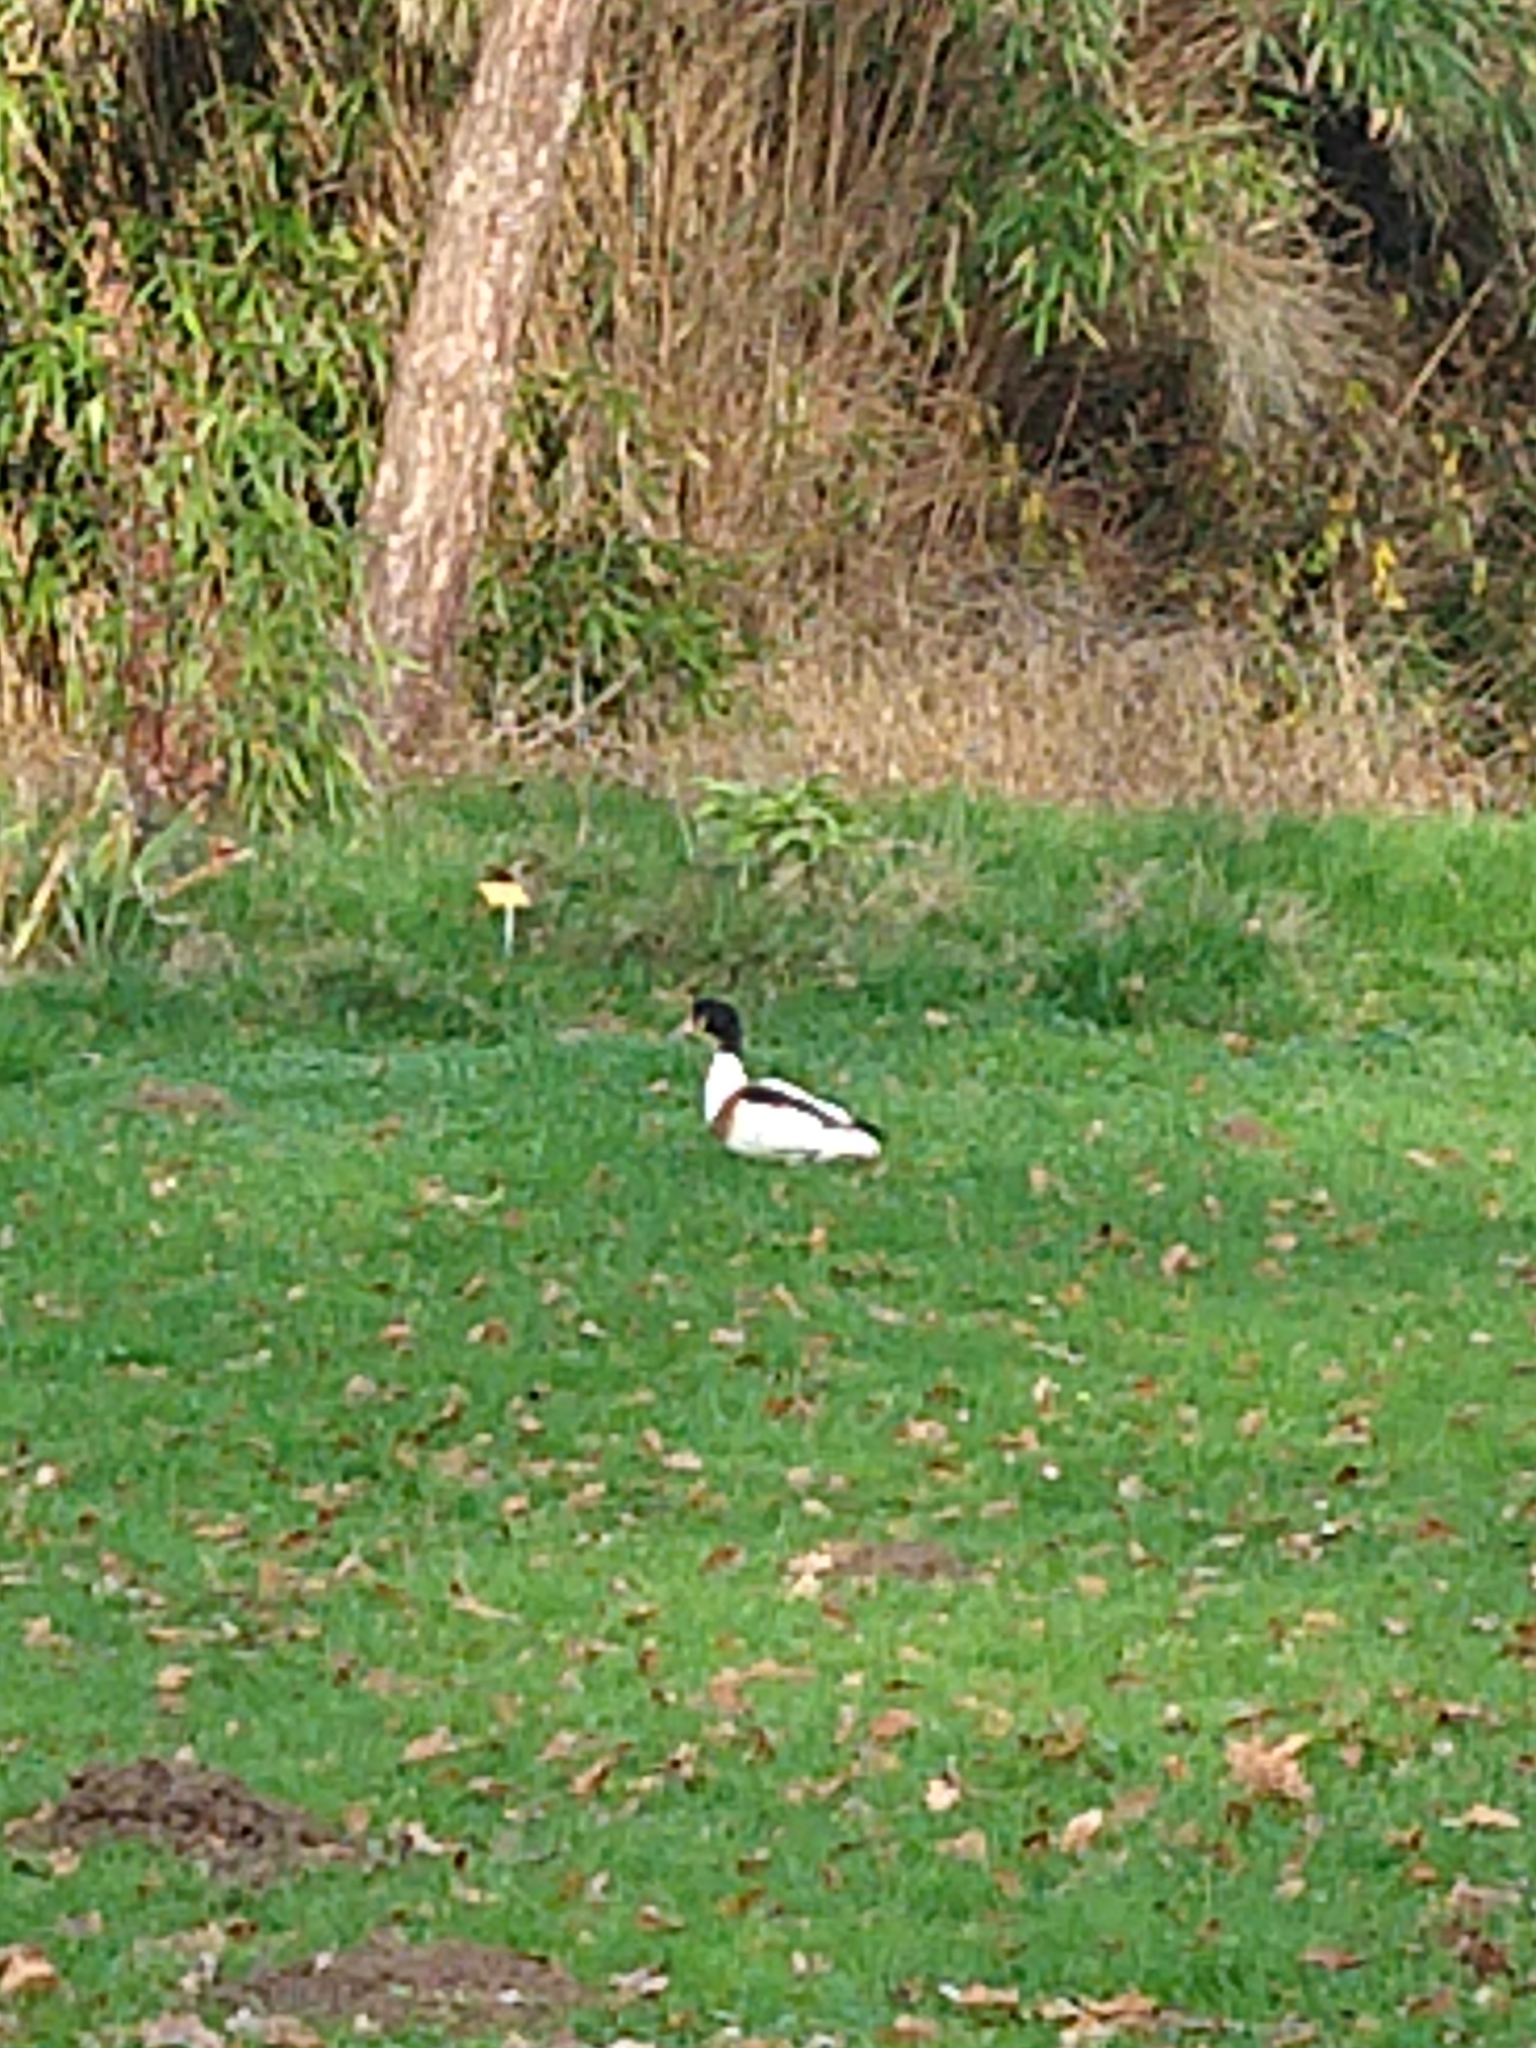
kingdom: Animalia
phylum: Chordata
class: Aves
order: Anseriformes
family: Anatidae
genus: Tadorna
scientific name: Tadorna tadorna
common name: Common shelduck
